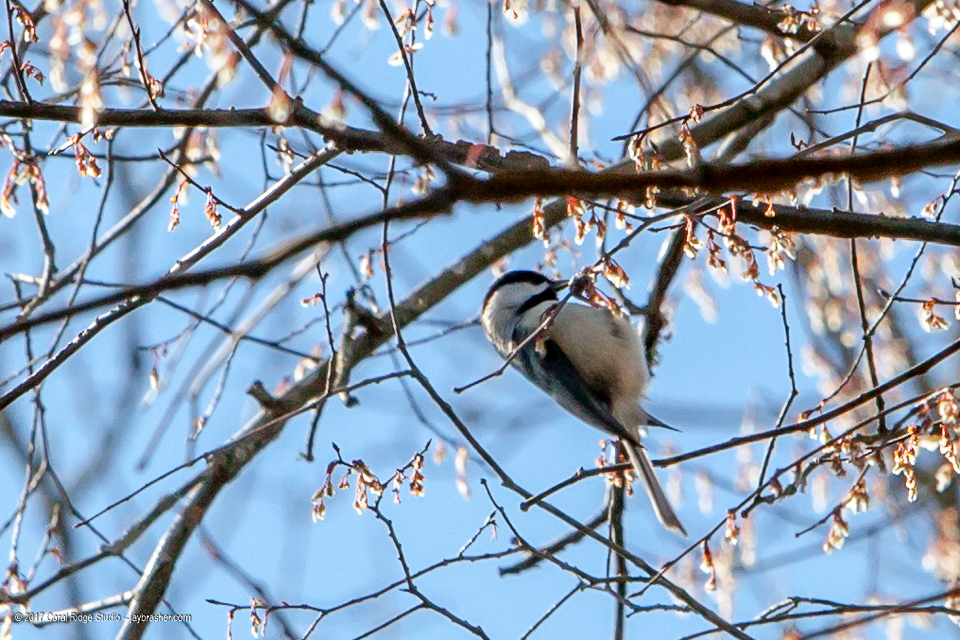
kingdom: Animalia
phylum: Chordata
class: Aves
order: Passeriformes
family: Paridae
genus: Poecile
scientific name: Poecile carolinensis
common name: Carolina chickadee
